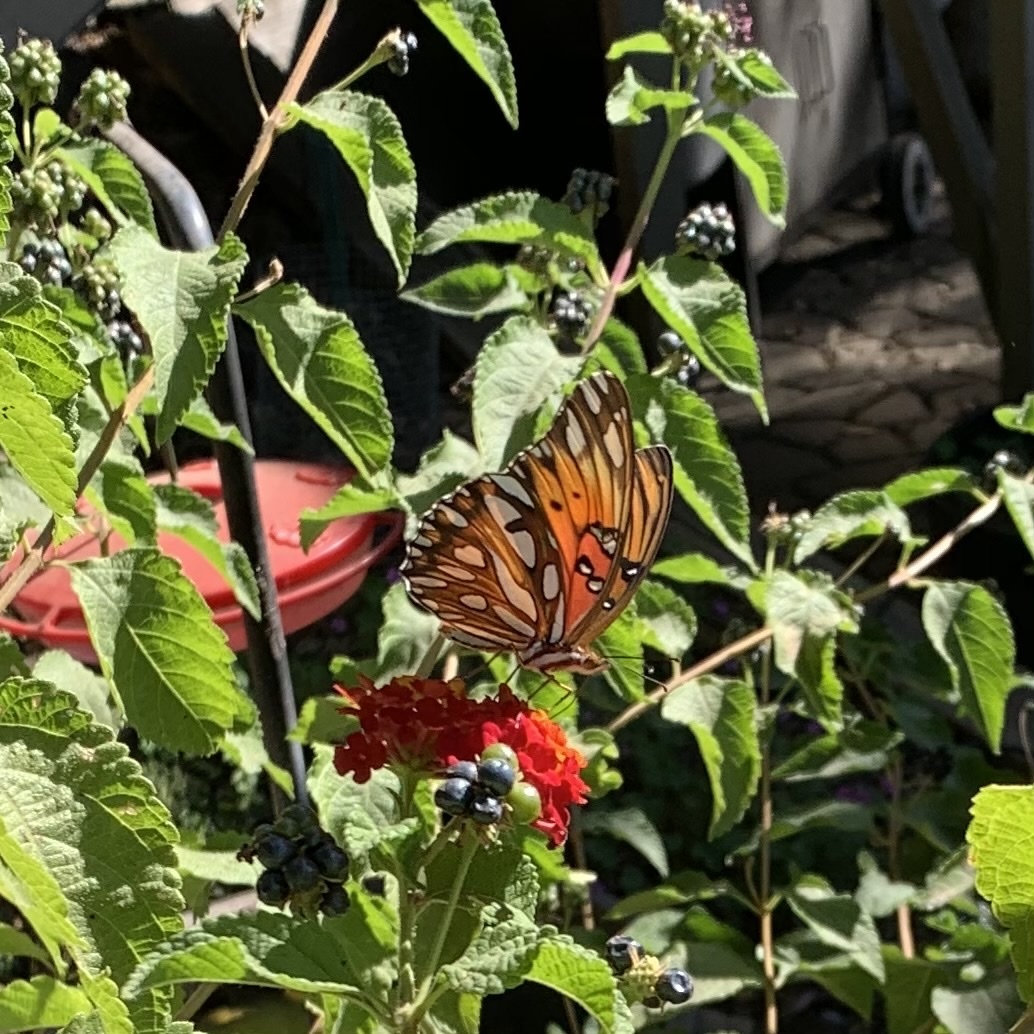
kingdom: Animalia
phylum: Arthropoda
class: Insecta
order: Lepidoptera
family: Nymphalidae
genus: Dione
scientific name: Dione vanillae
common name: Gulf fritillary
